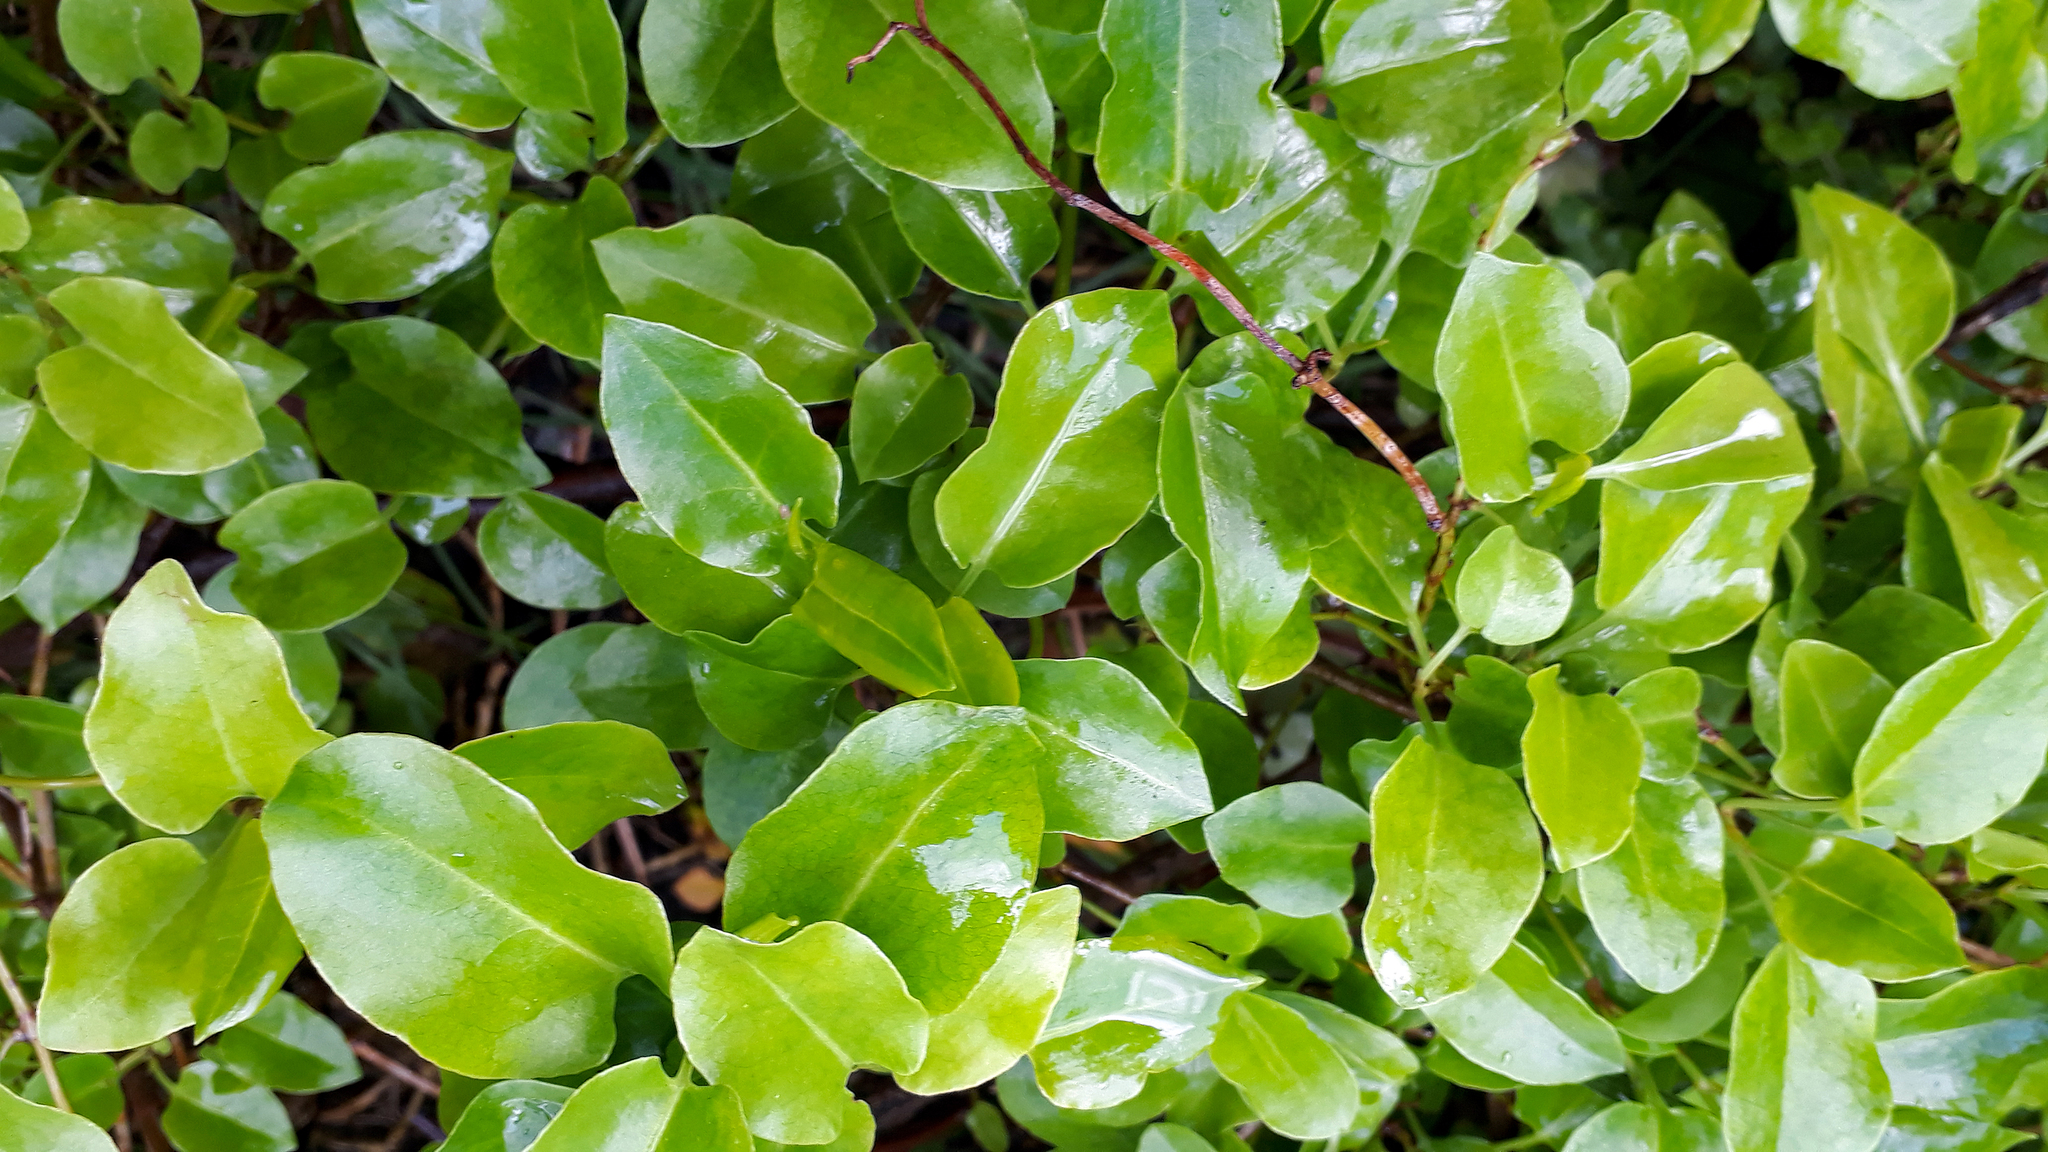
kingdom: Plantae
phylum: Tracheophyta
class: Magnoliopsida
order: Caryophyllales
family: Polygonaceae
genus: Muehlenbeckia
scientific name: Muehlenbeckia australis
